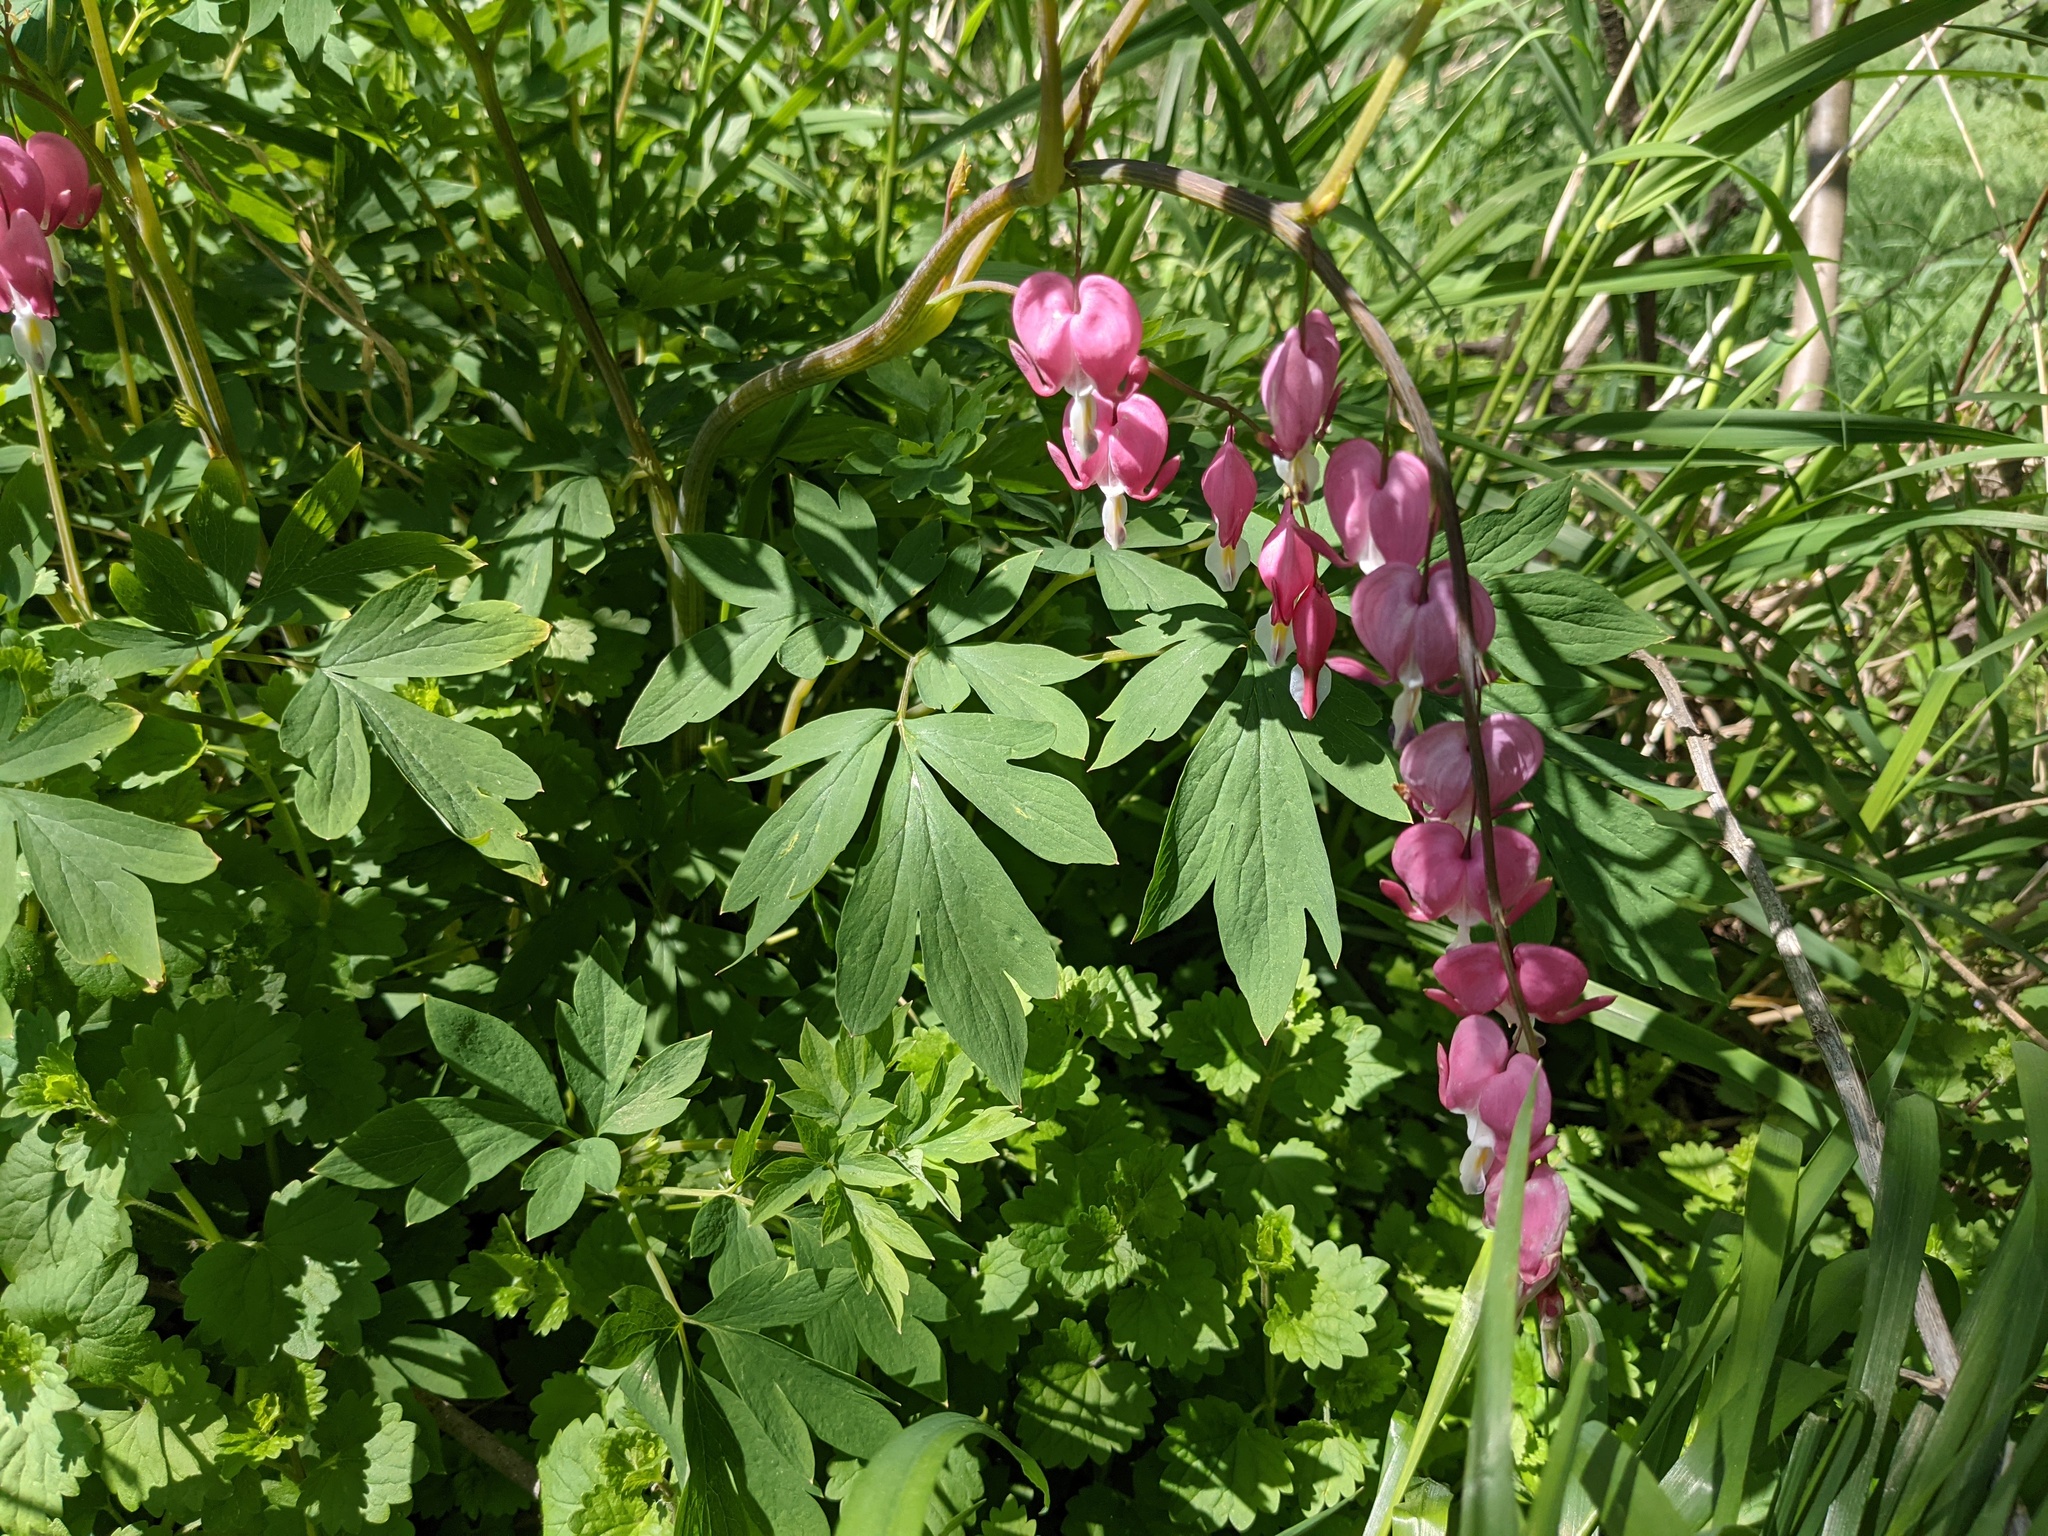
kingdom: Plantae
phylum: Tracheophyta
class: Magnoliopsida
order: Ranunculales
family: Papaveraceae
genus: Lamprocapnos
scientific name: Lamprocapnos spectabilis
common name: Asian bleeding-heart
